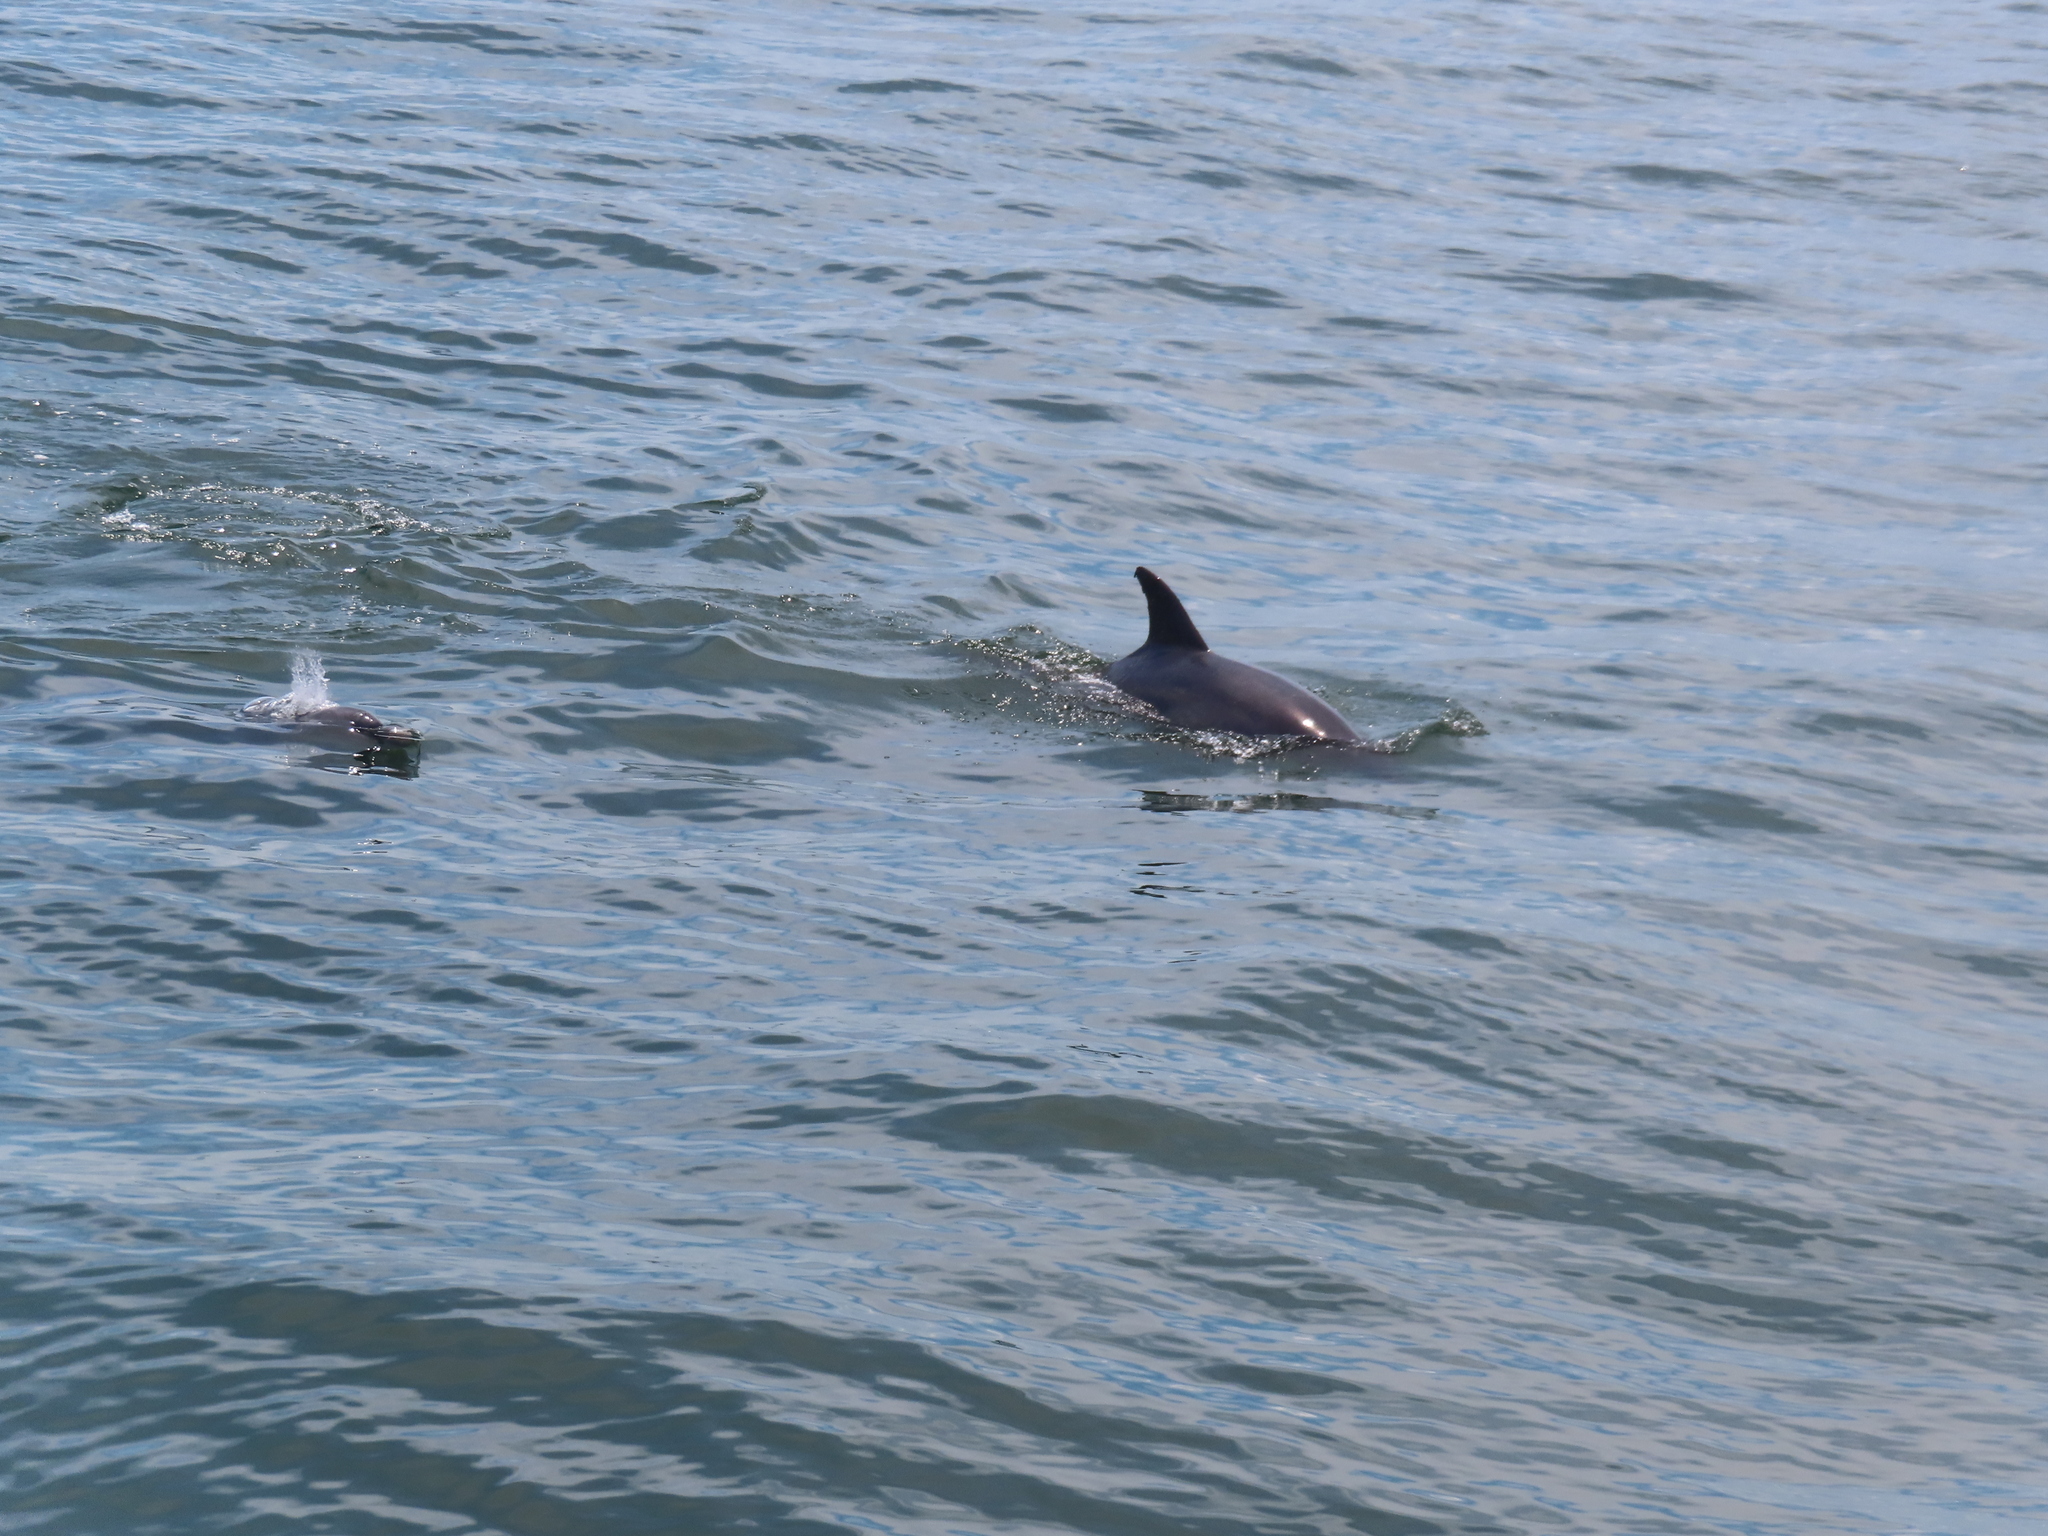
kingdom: Animalia
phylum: Chordata
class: Mammalia
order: Cetacea
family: Delphinidae
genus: Tursiops
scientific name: Tursiops truncatus
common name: Bottlenose dolphin
